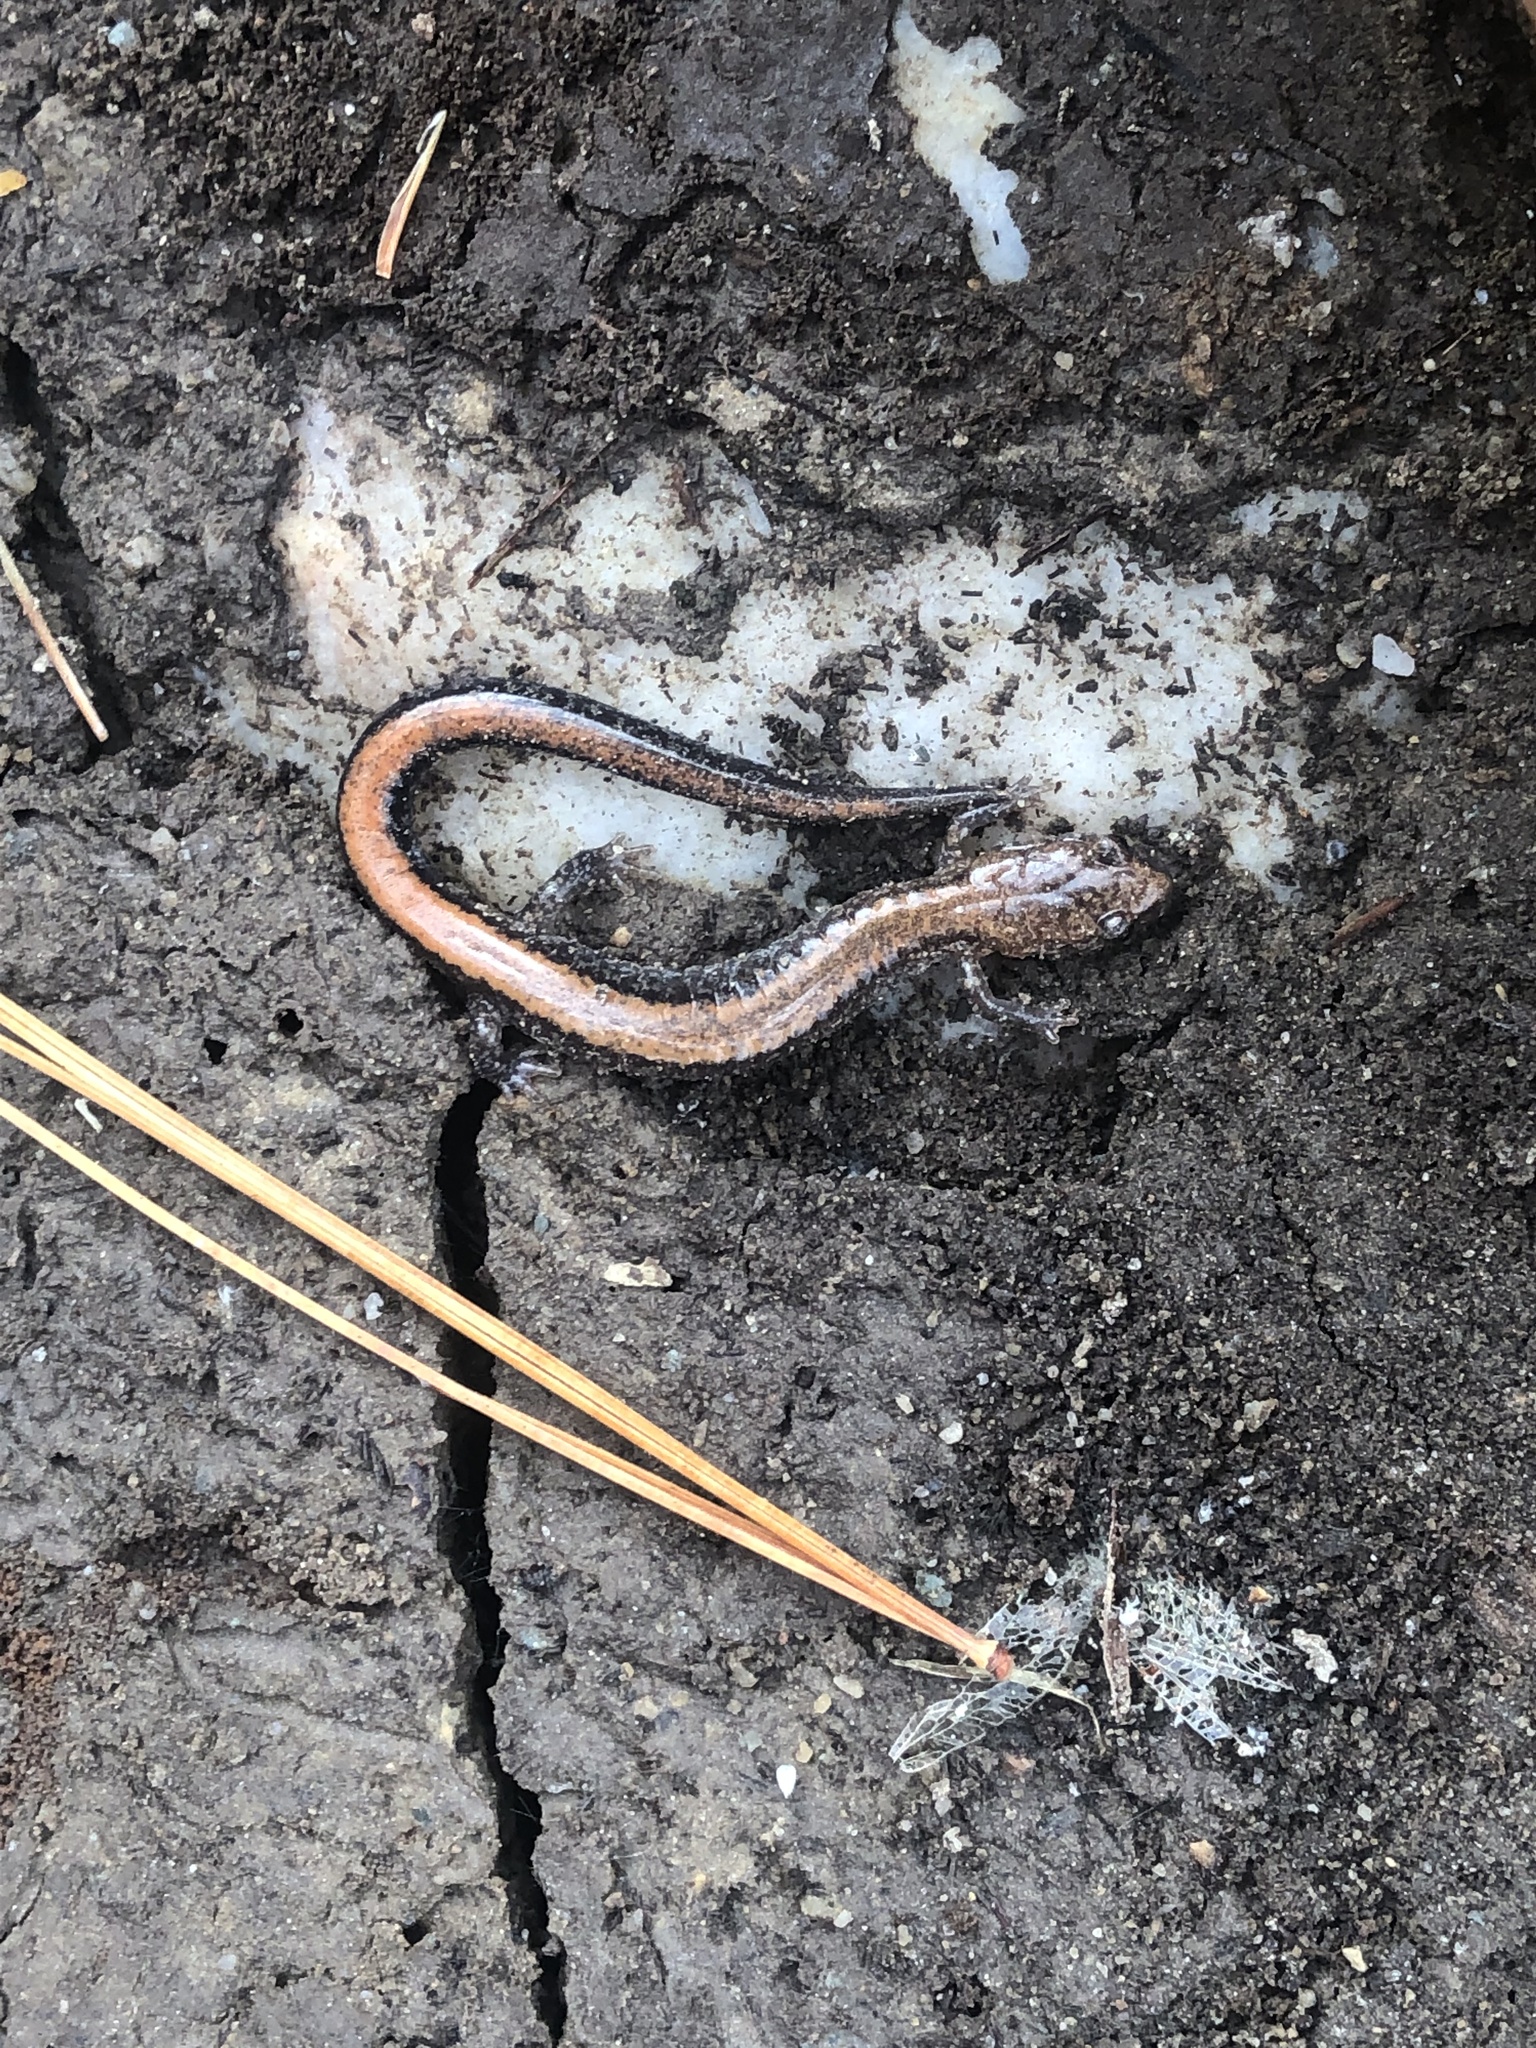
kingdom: Animalia
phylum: Chordata
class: Amphibia
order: Caudata
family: Plethodontidae
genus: Plethodon
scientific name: Plethodon cinereus
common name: Redback salamander
